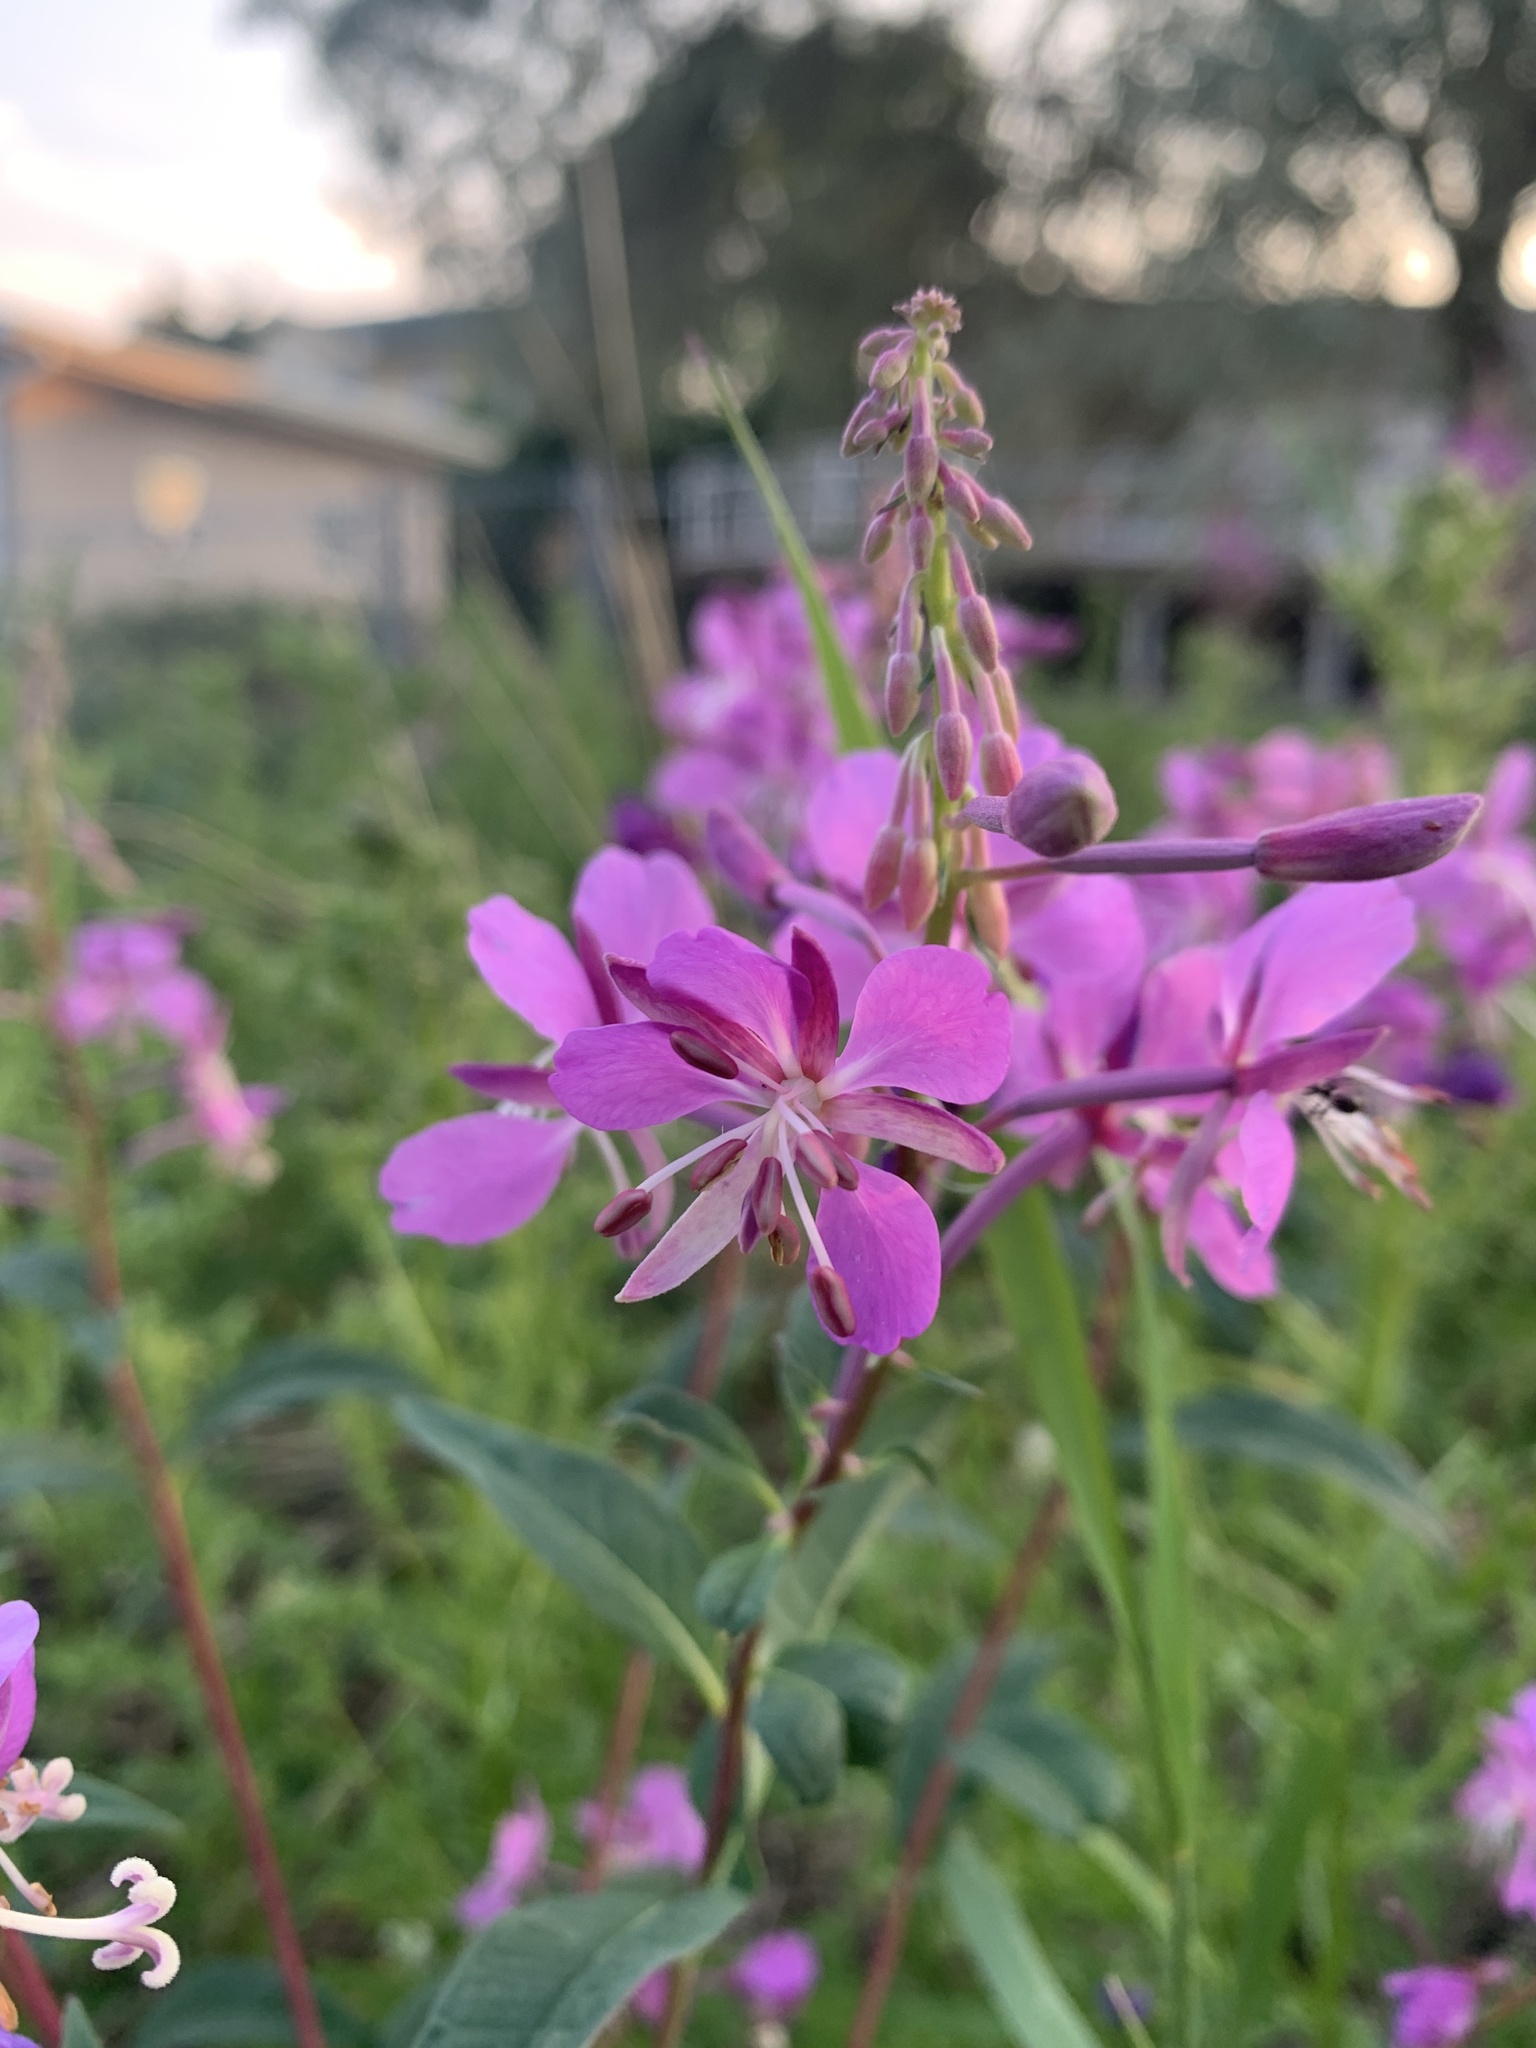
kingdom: Plantae
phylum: Tracheophyta
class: Magnoliopsida
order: Myrtales
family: Onagraceae
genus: Chamaenerion
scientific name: Chamaenerion angustifolium
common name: Fireweed
